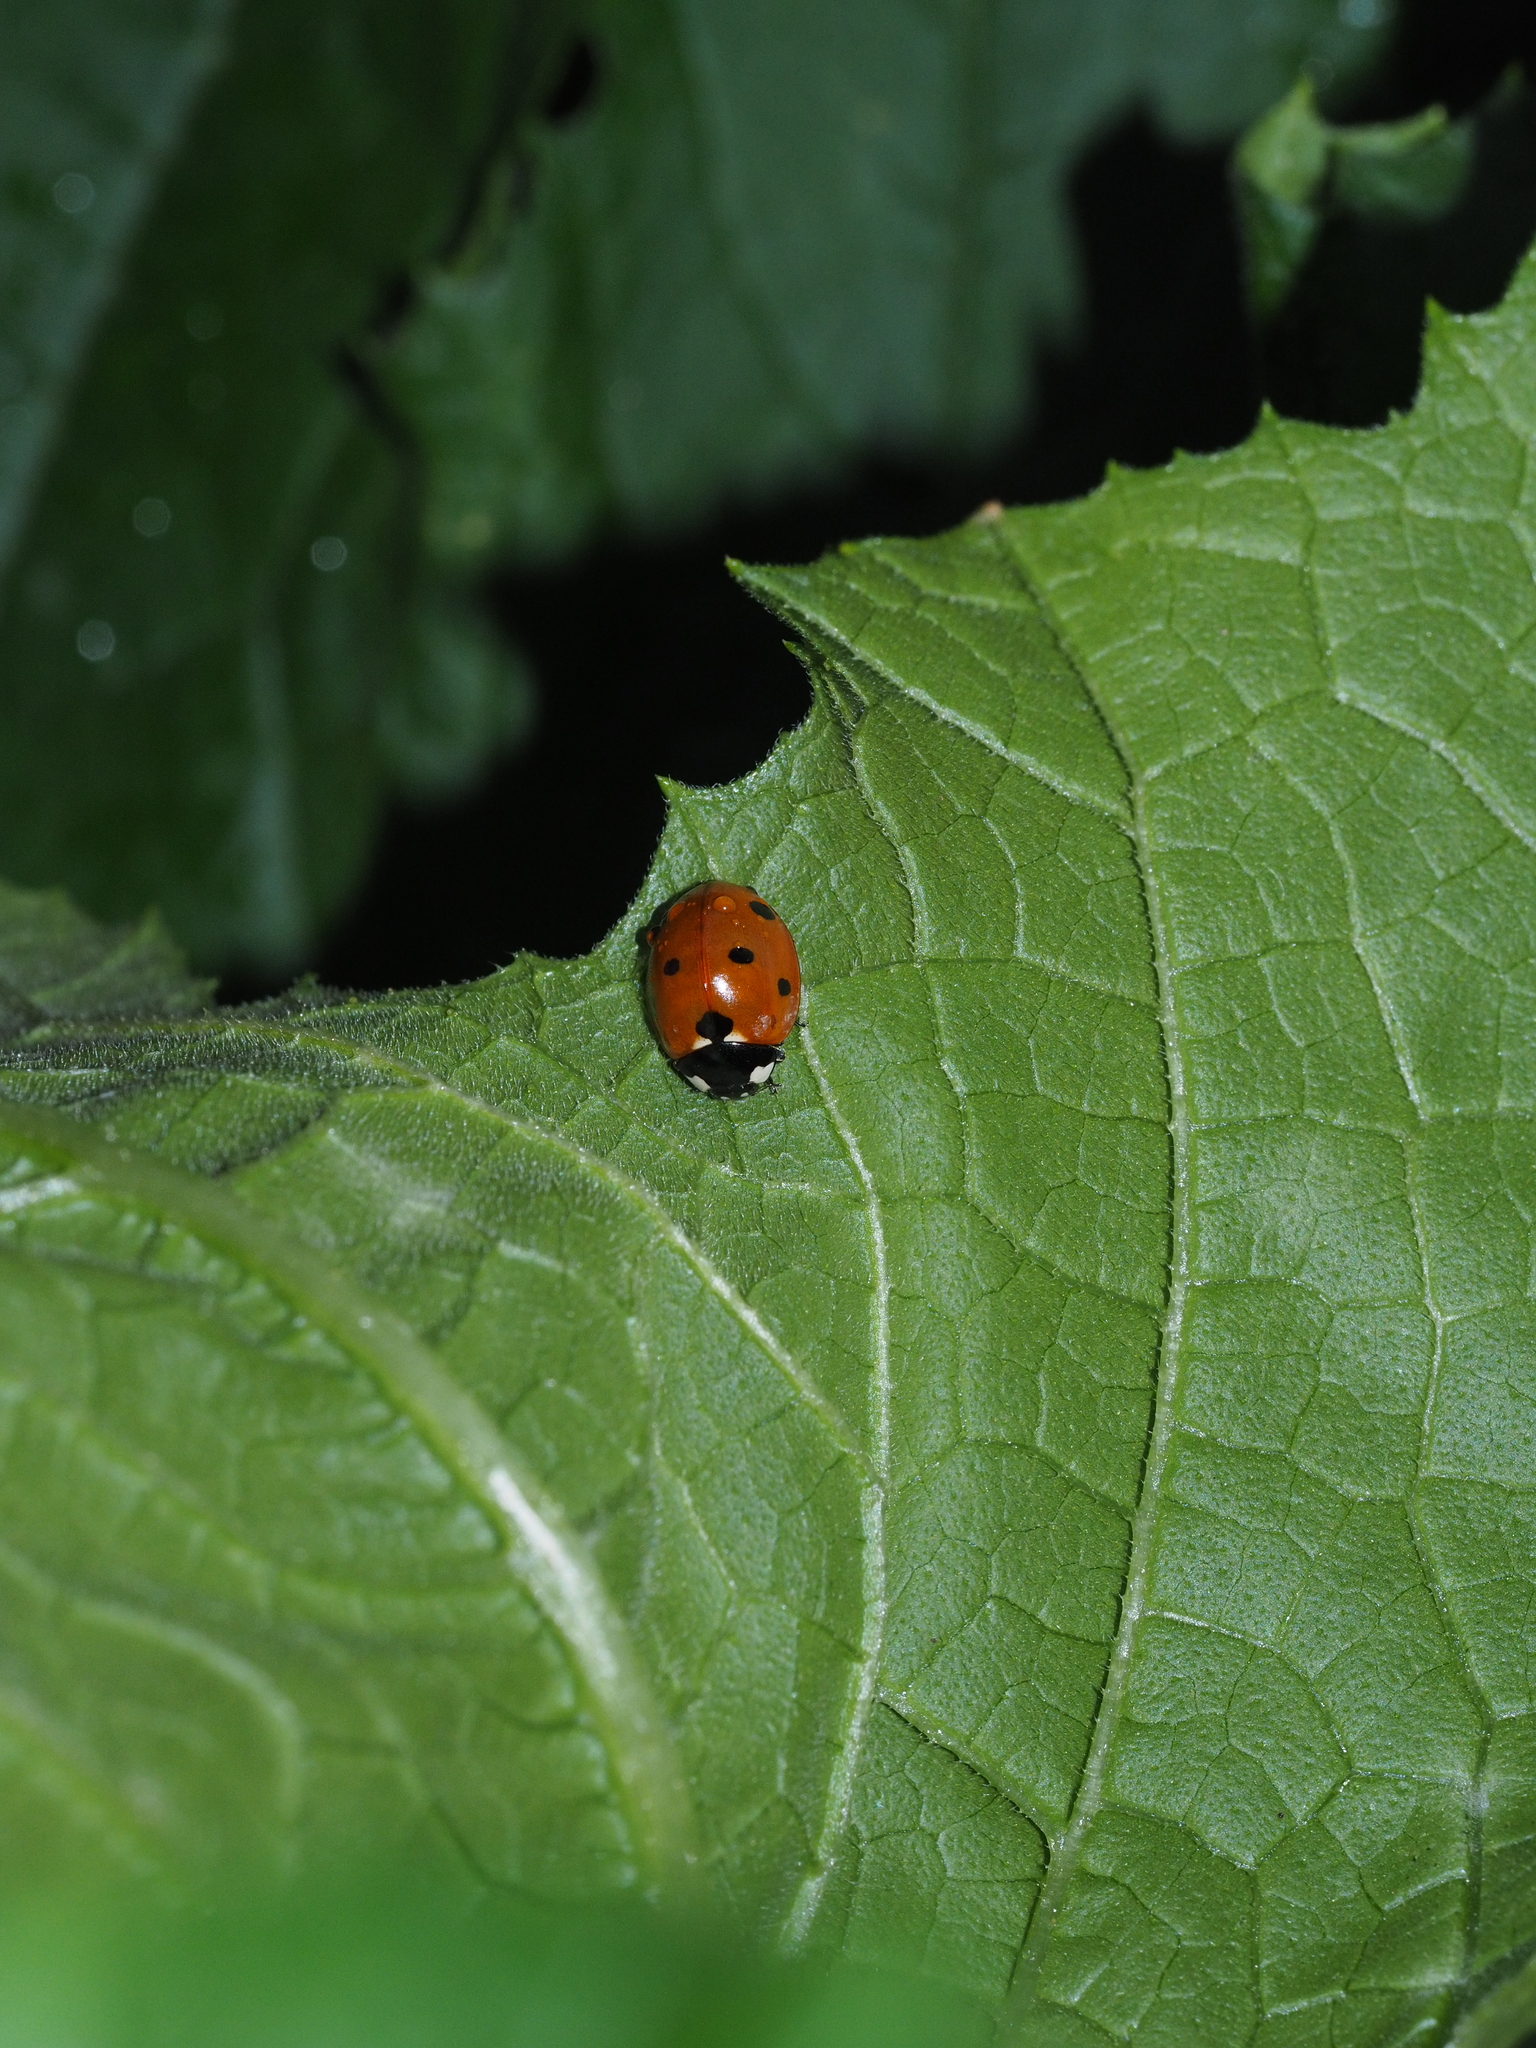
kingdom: Animalia
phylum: Arthropoda
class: Insecta
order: Coleoptera
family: Coccinellidae
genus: Coccinella
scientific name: Coccinella septempunctata
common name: Sevenspotted lady beetle
